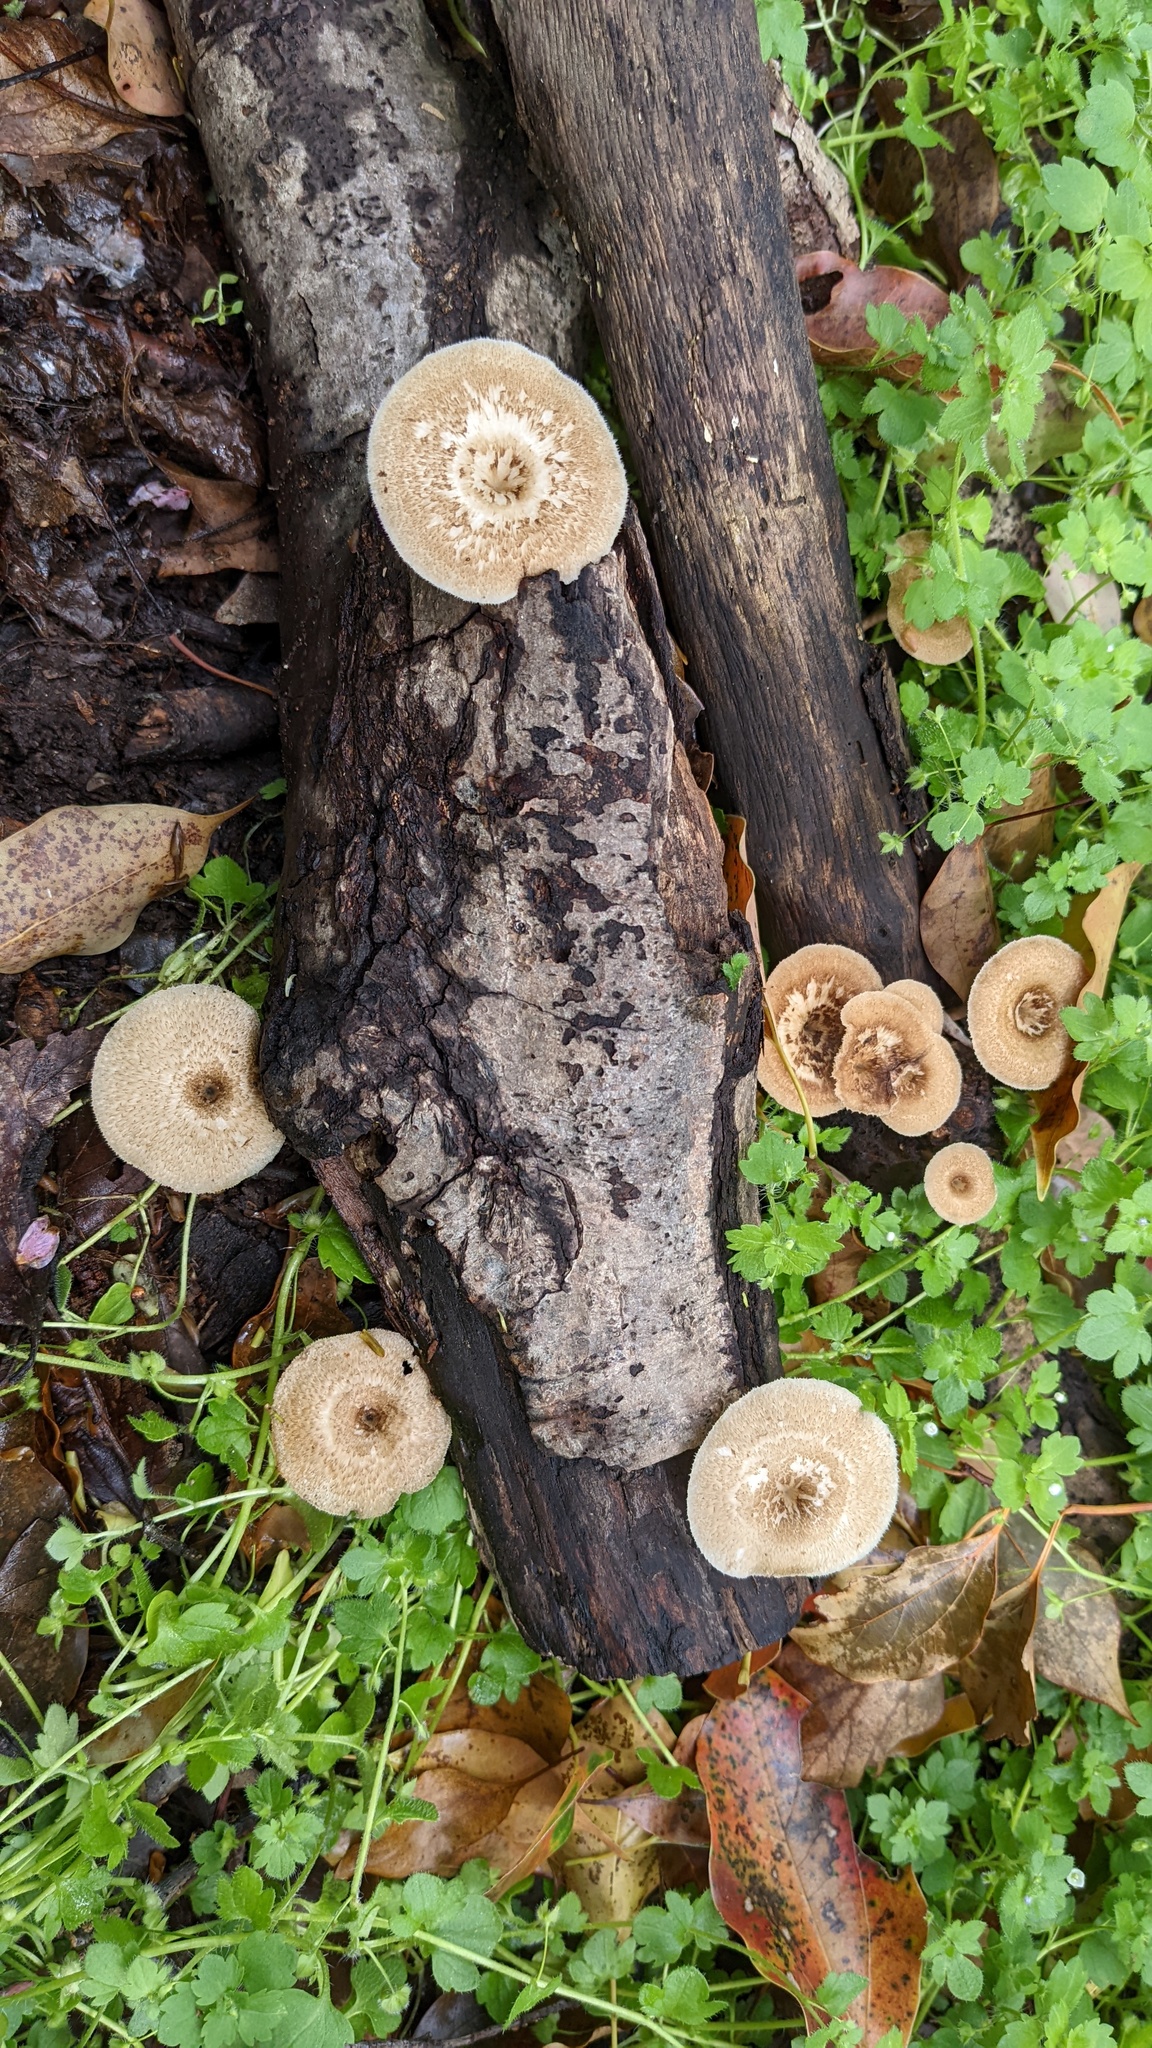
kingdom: Fungi
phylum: Basidiomycota
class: Agaricomycetes
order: Polyporales
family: Polyporaceae
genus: Lentinus
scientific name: Lentinus arcularius
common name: Spring polypore
